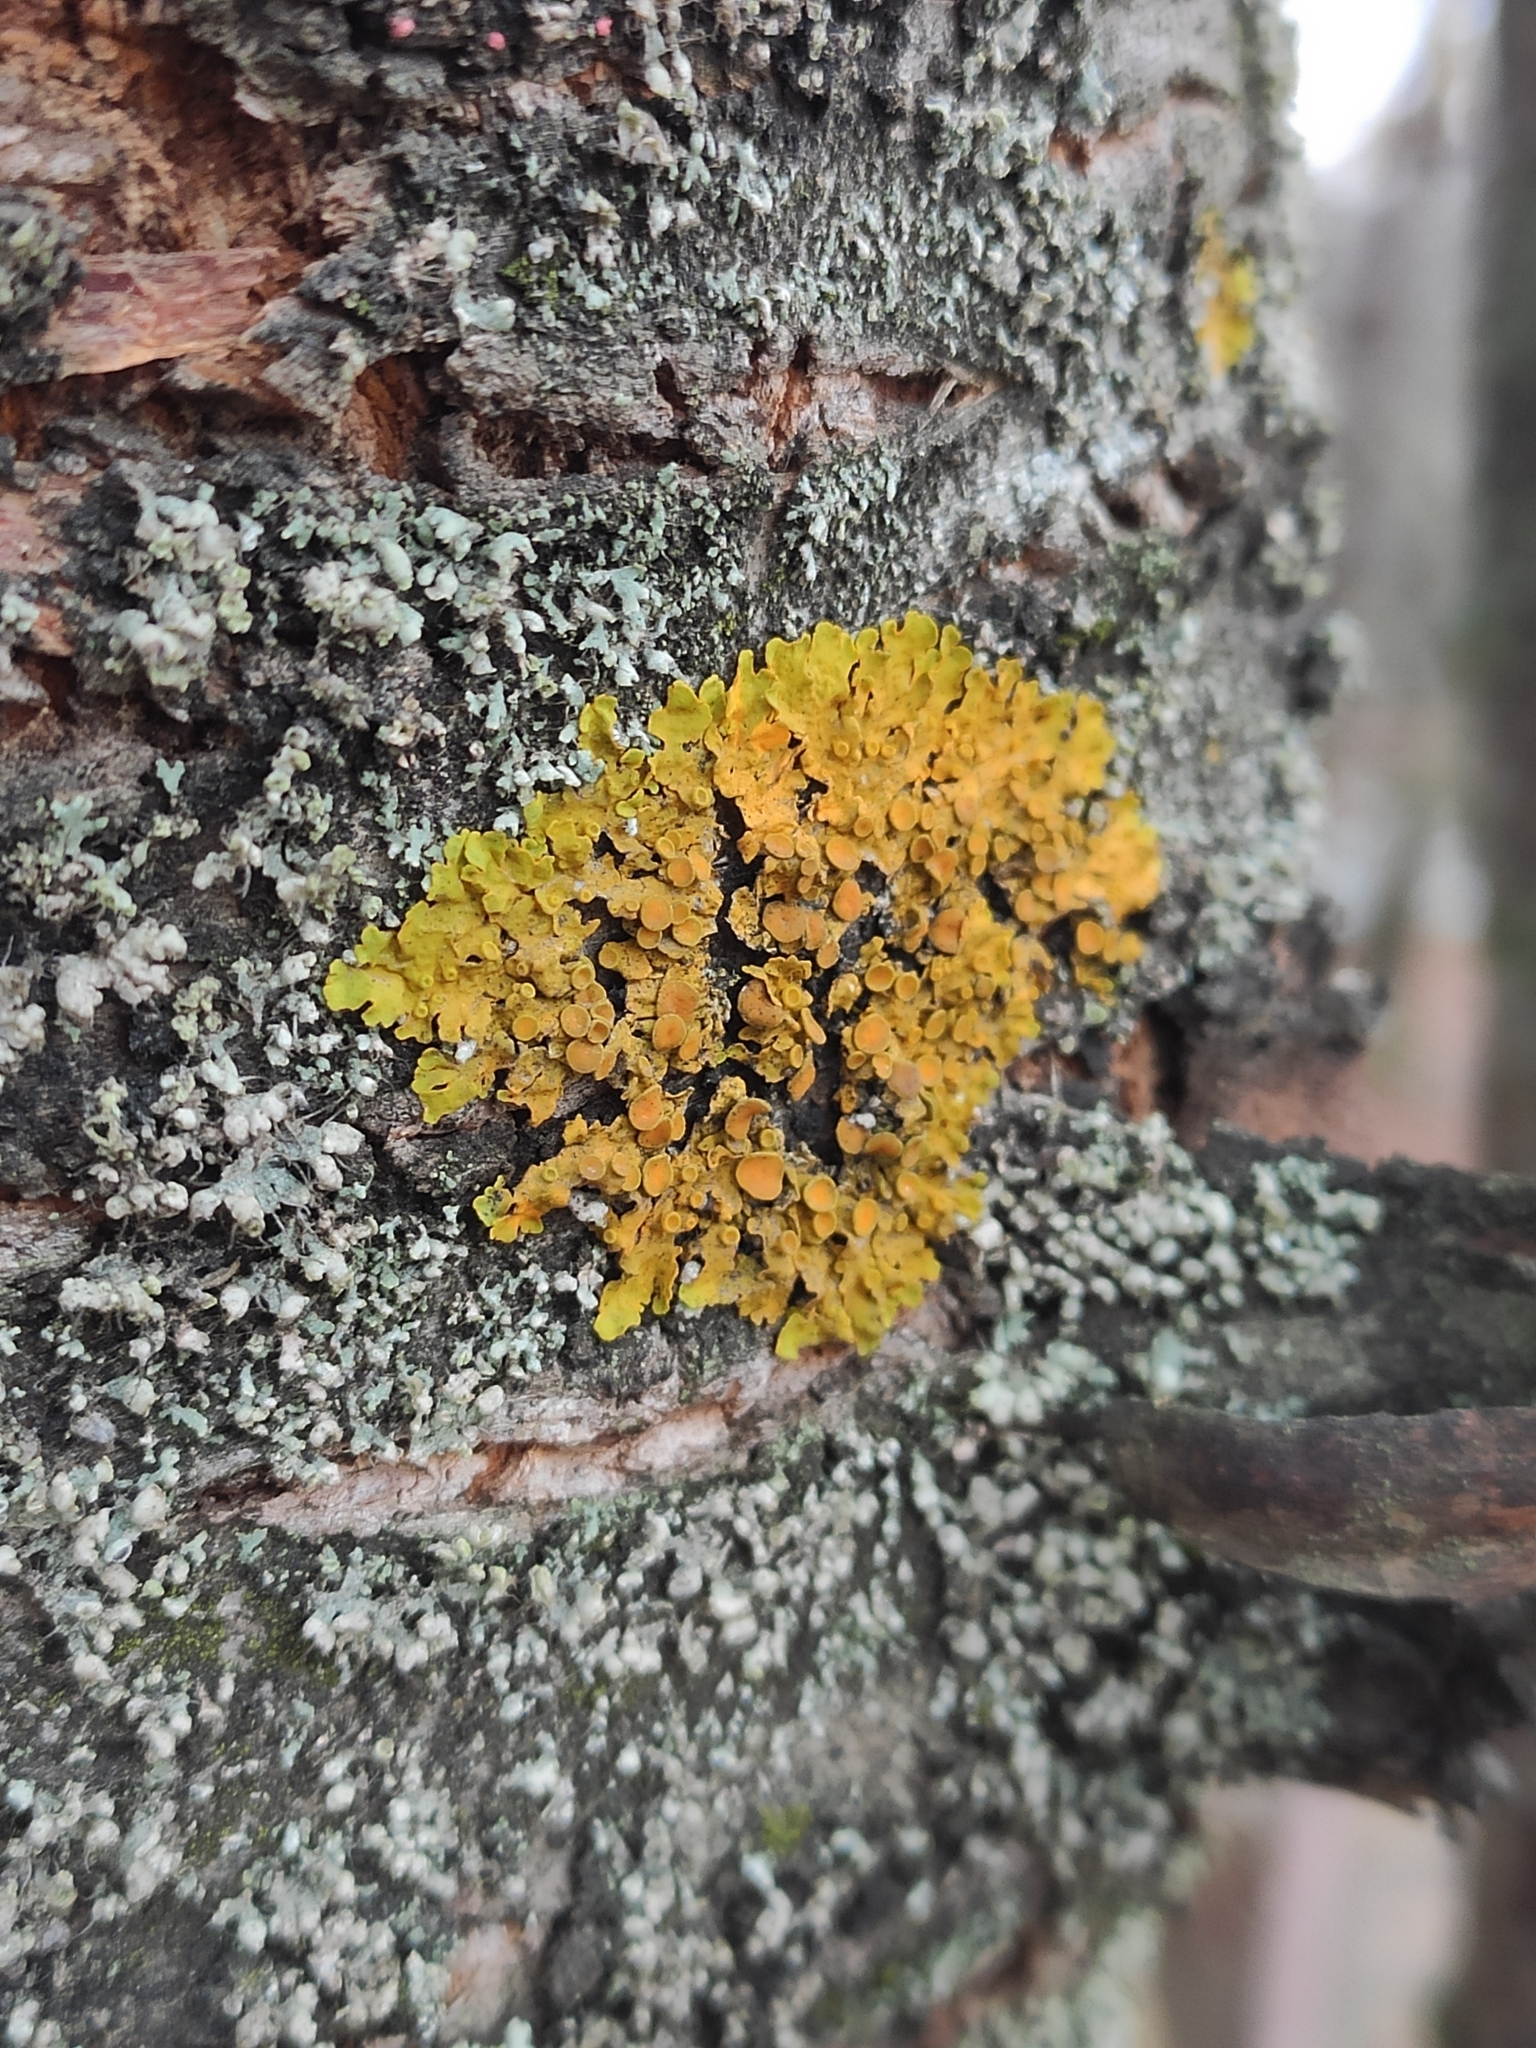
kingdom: Fungi
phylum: Ascomycota
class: Lecanoromycetes
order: Teloschistales
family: Teloschistaceae
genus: Xanthoria
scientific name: Xanthoria parietina
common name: Common orange lichen
